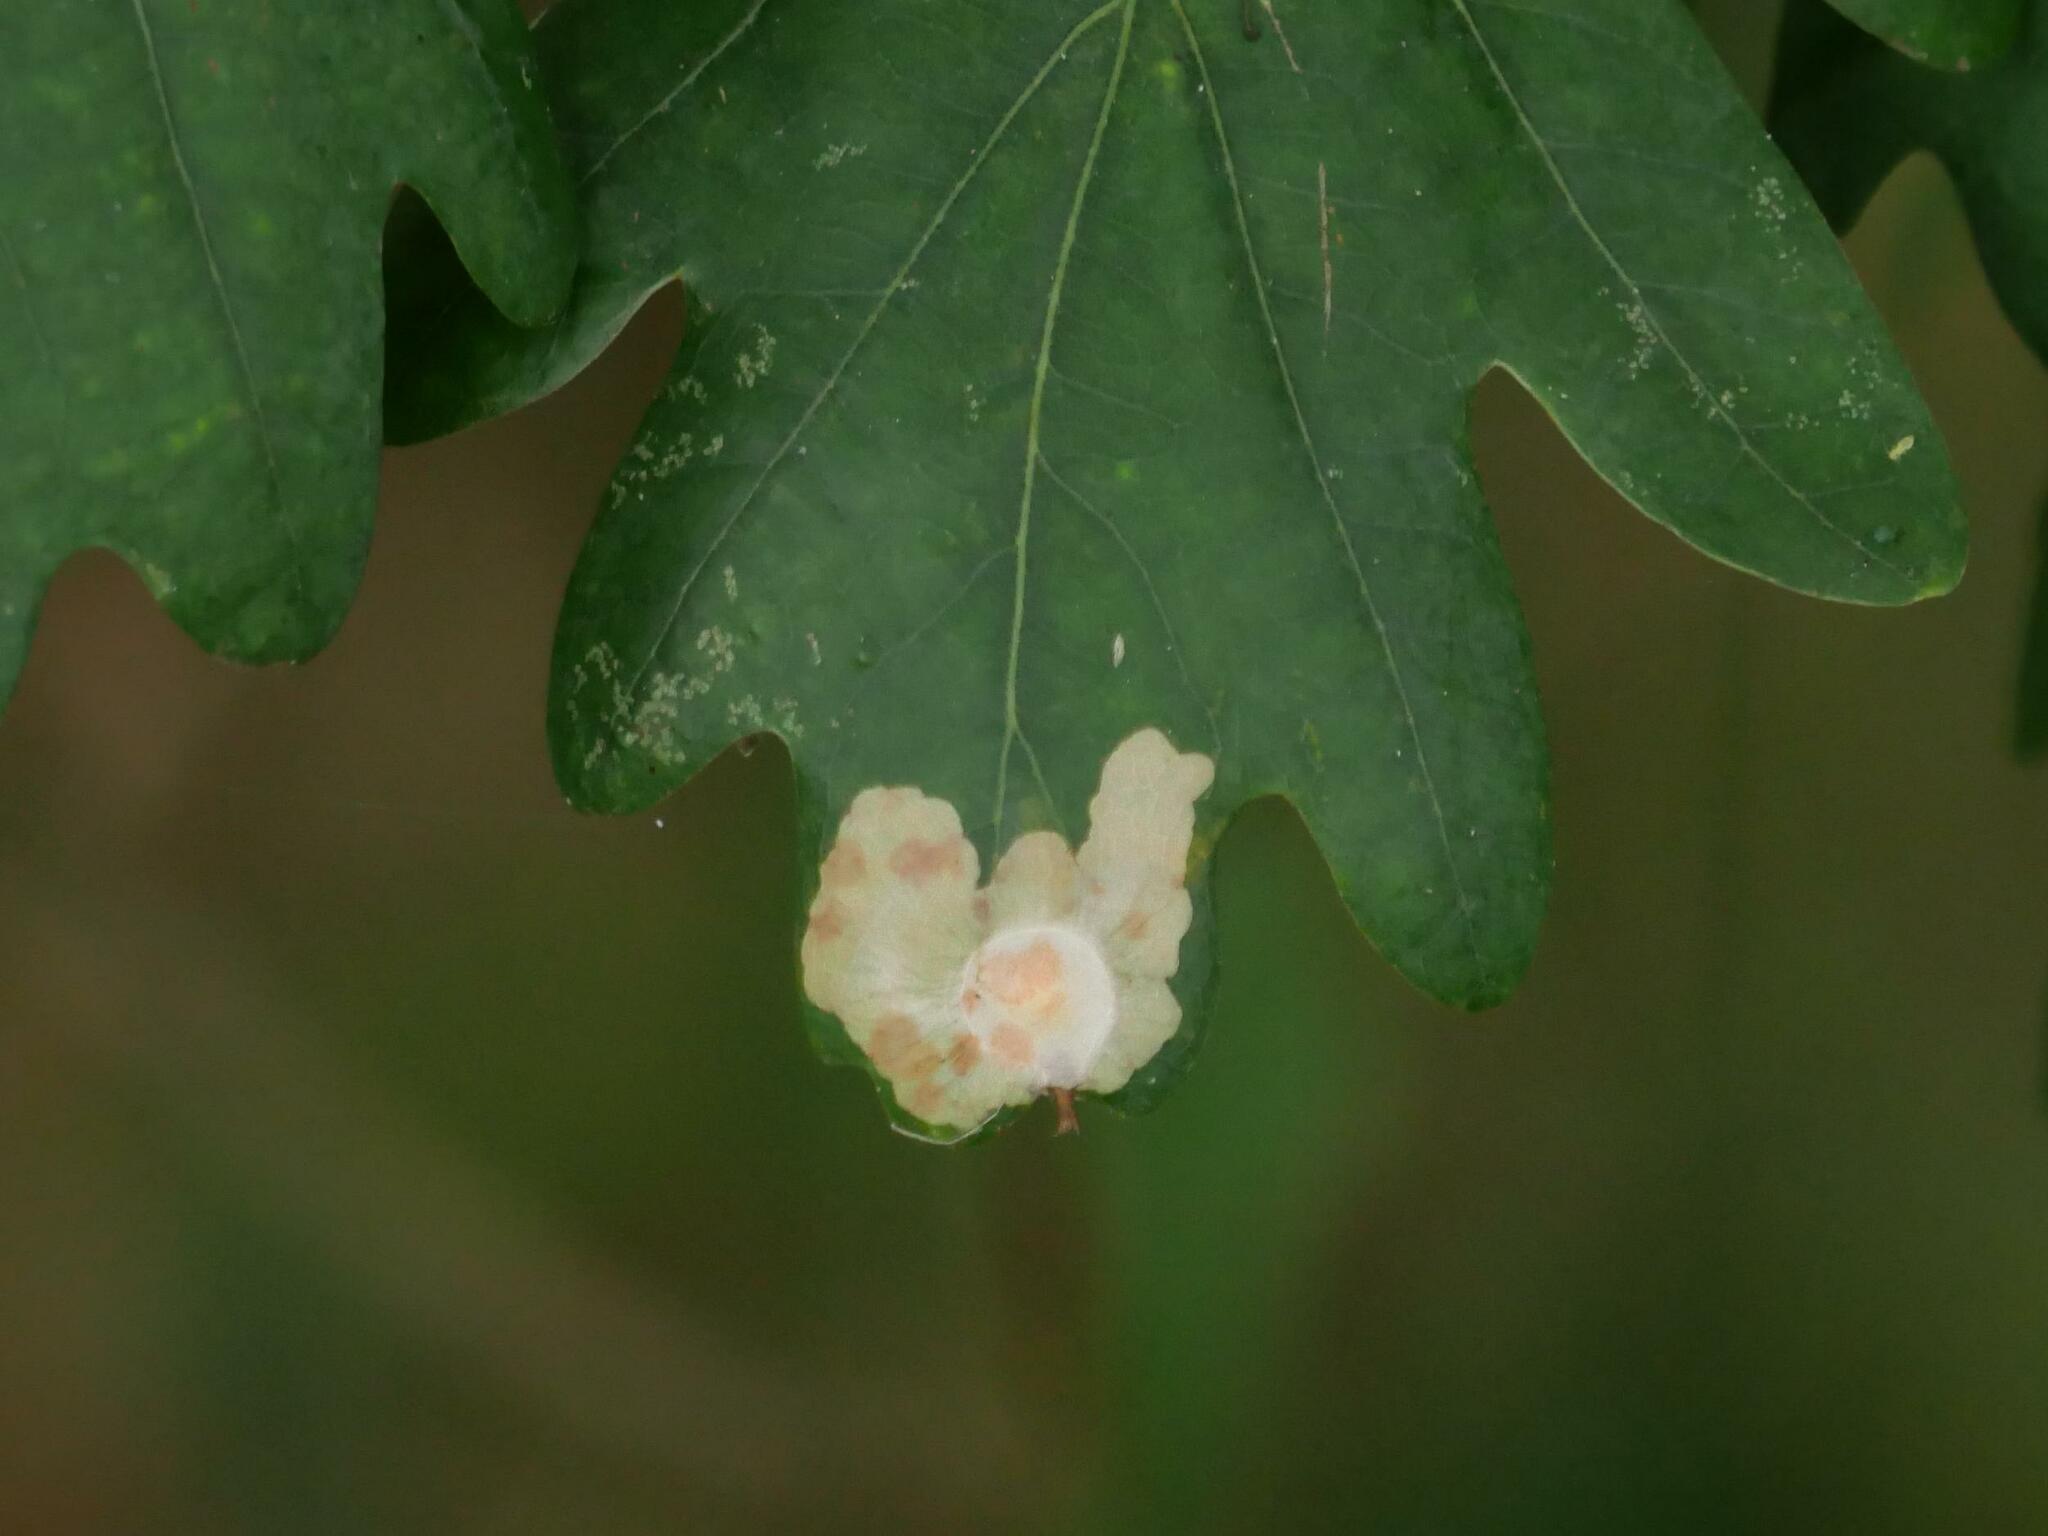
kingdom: Animalia
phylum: Arthropoda
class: Insecta
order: Lepidoptera
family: Tischeriidae
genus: Tischeria
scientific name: Tischeria ekebladella
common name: Oak carl
